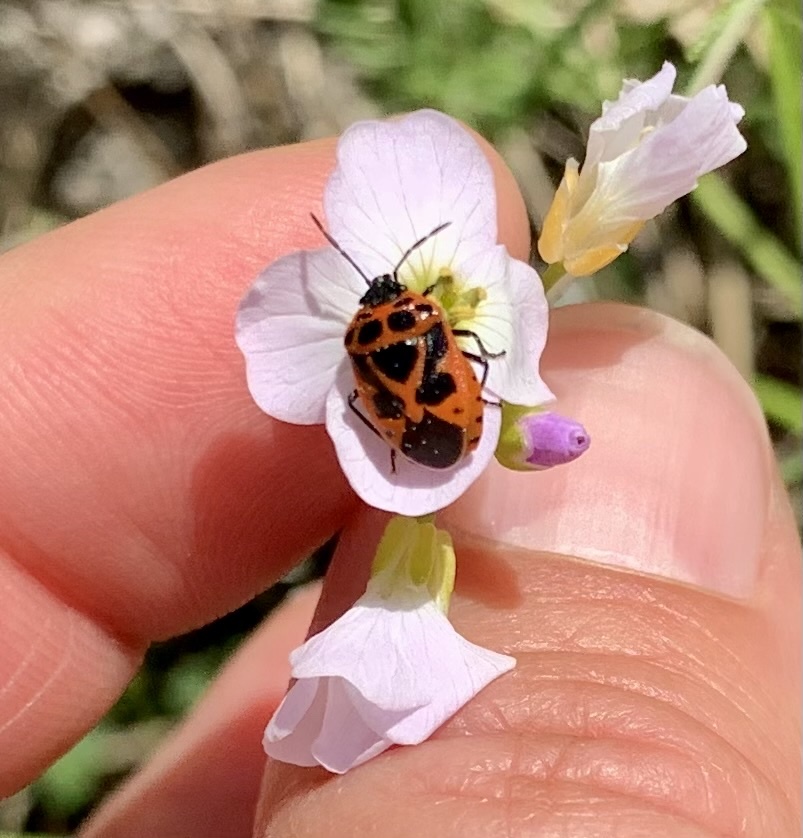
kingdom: Animalia
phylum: Arthropoda
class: Insecta
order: Hemiptera
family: Pentatomidae
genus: Eurydema
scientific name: Eurydema dominulus
